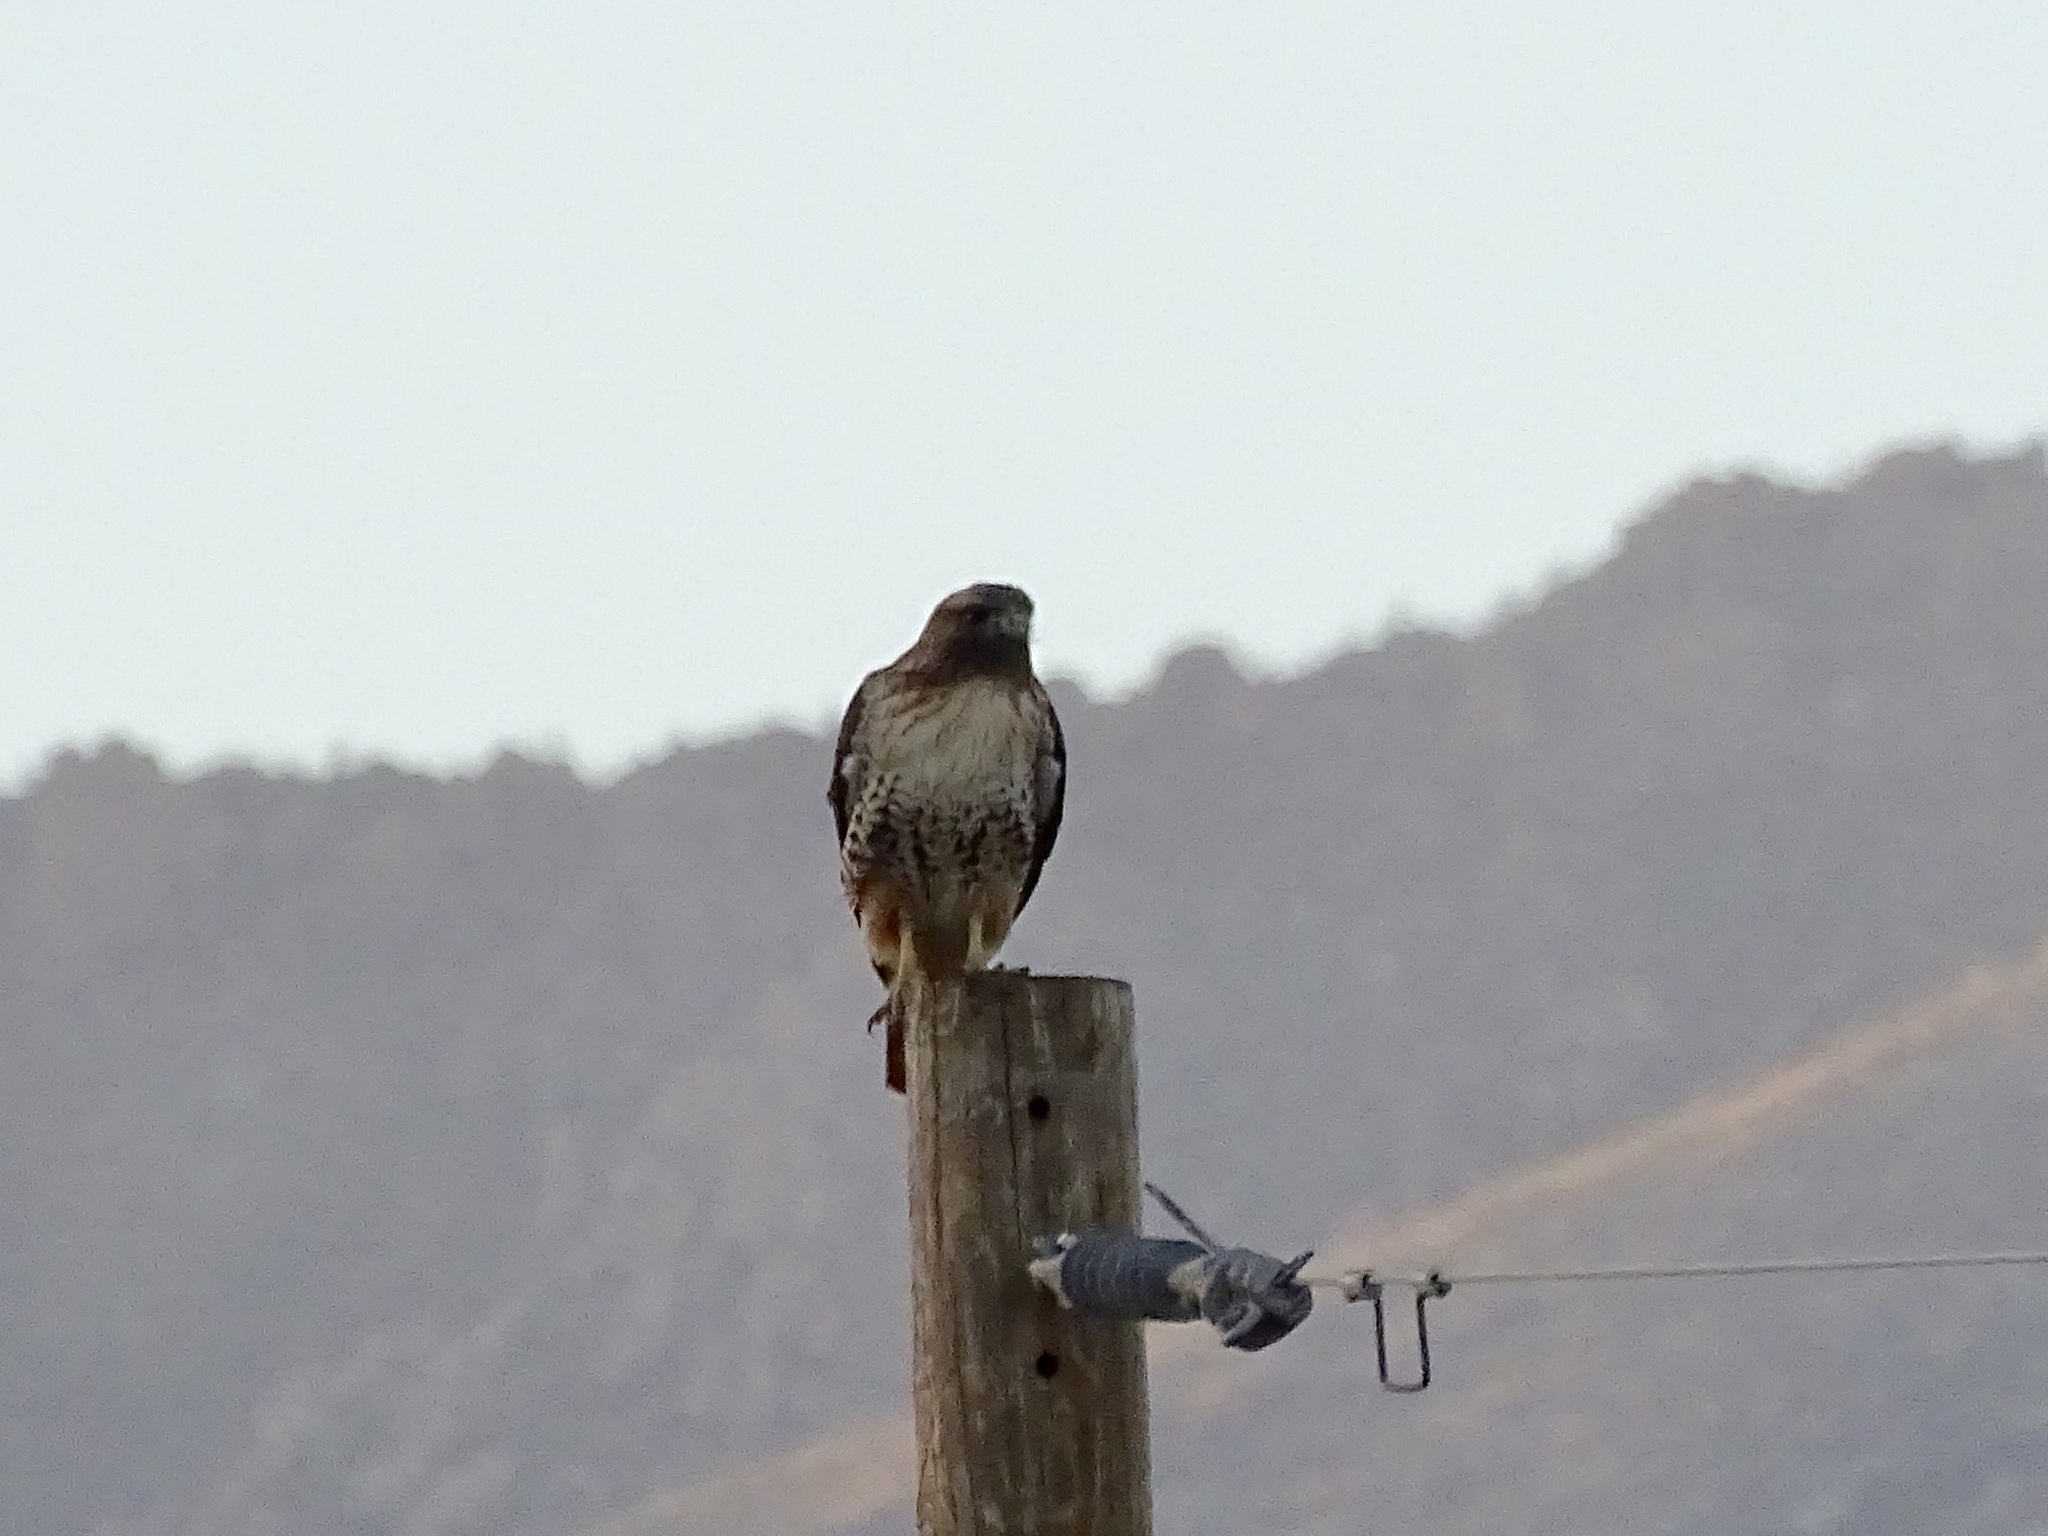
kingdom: Animalia
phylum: Chordata
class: Aves
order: Accipitriformes
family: Accipitridae
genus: Buteo
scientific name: Buteo jamaicensis
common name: Red-tailed hawk
